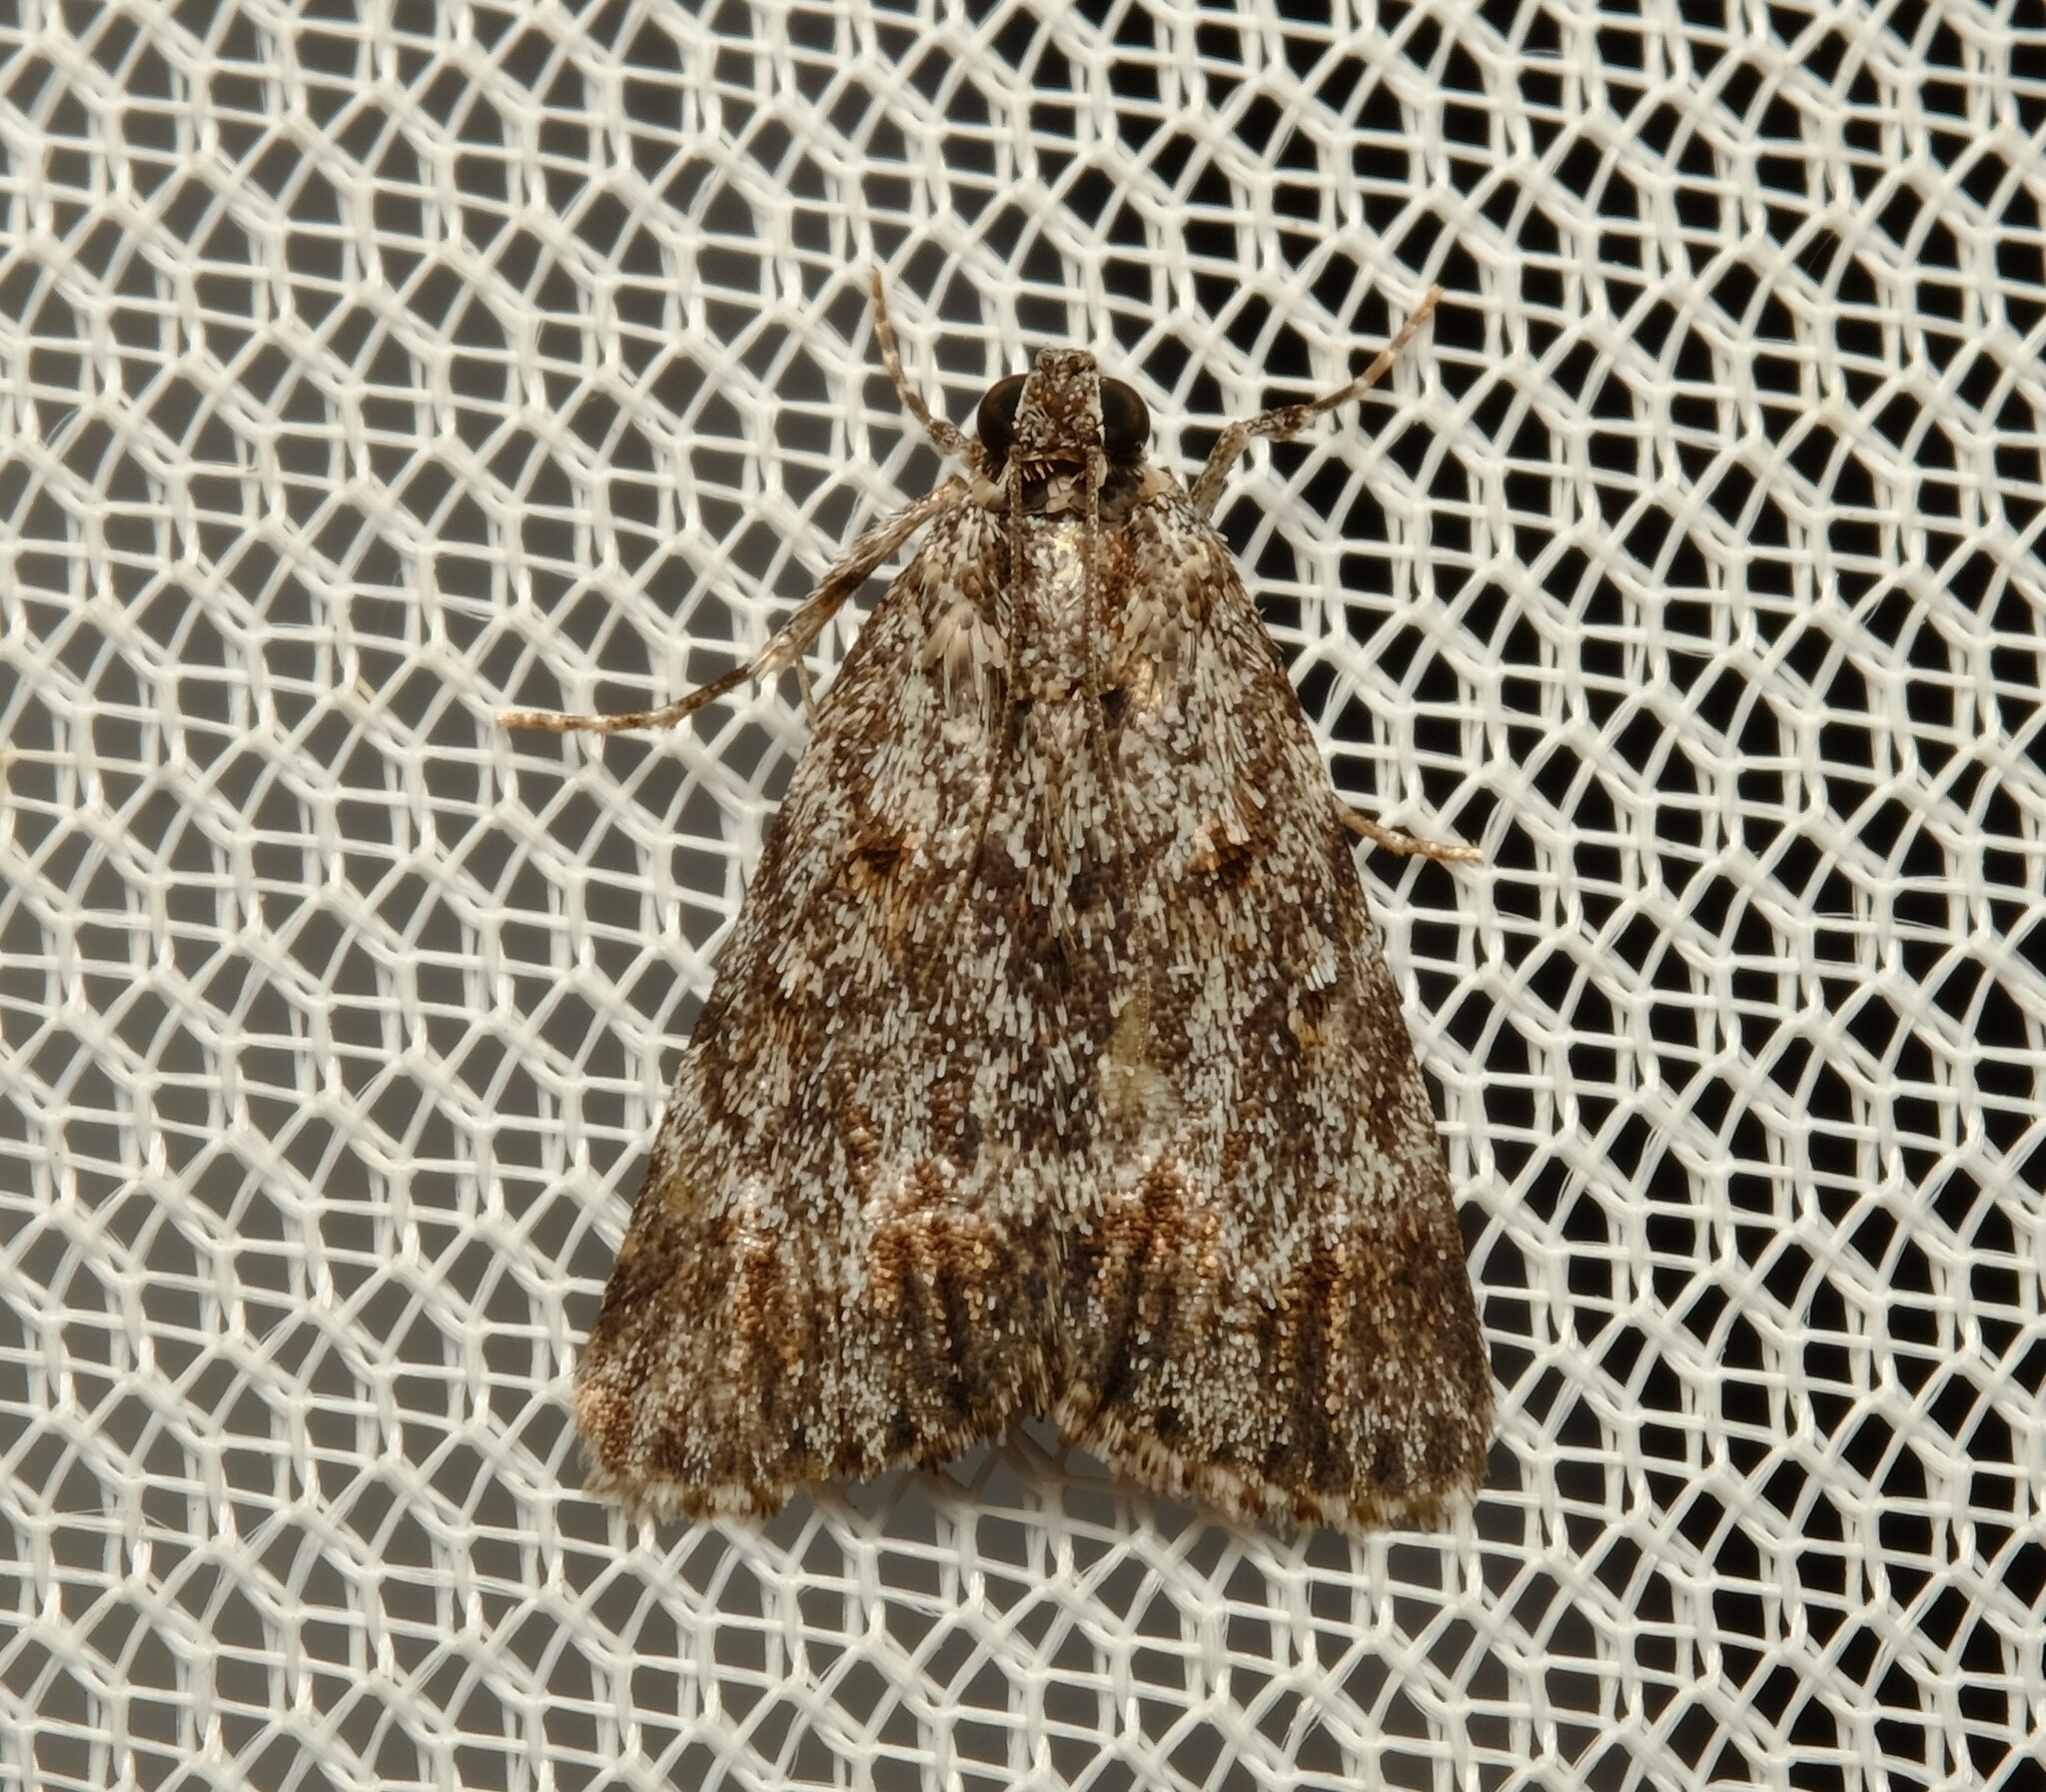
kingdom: Animalia
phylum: Arthropoda
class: Insecta
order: Lepidoptera
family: Pyralidae
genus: Spectrotrota
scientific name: Spectrotrota fimbrialis
